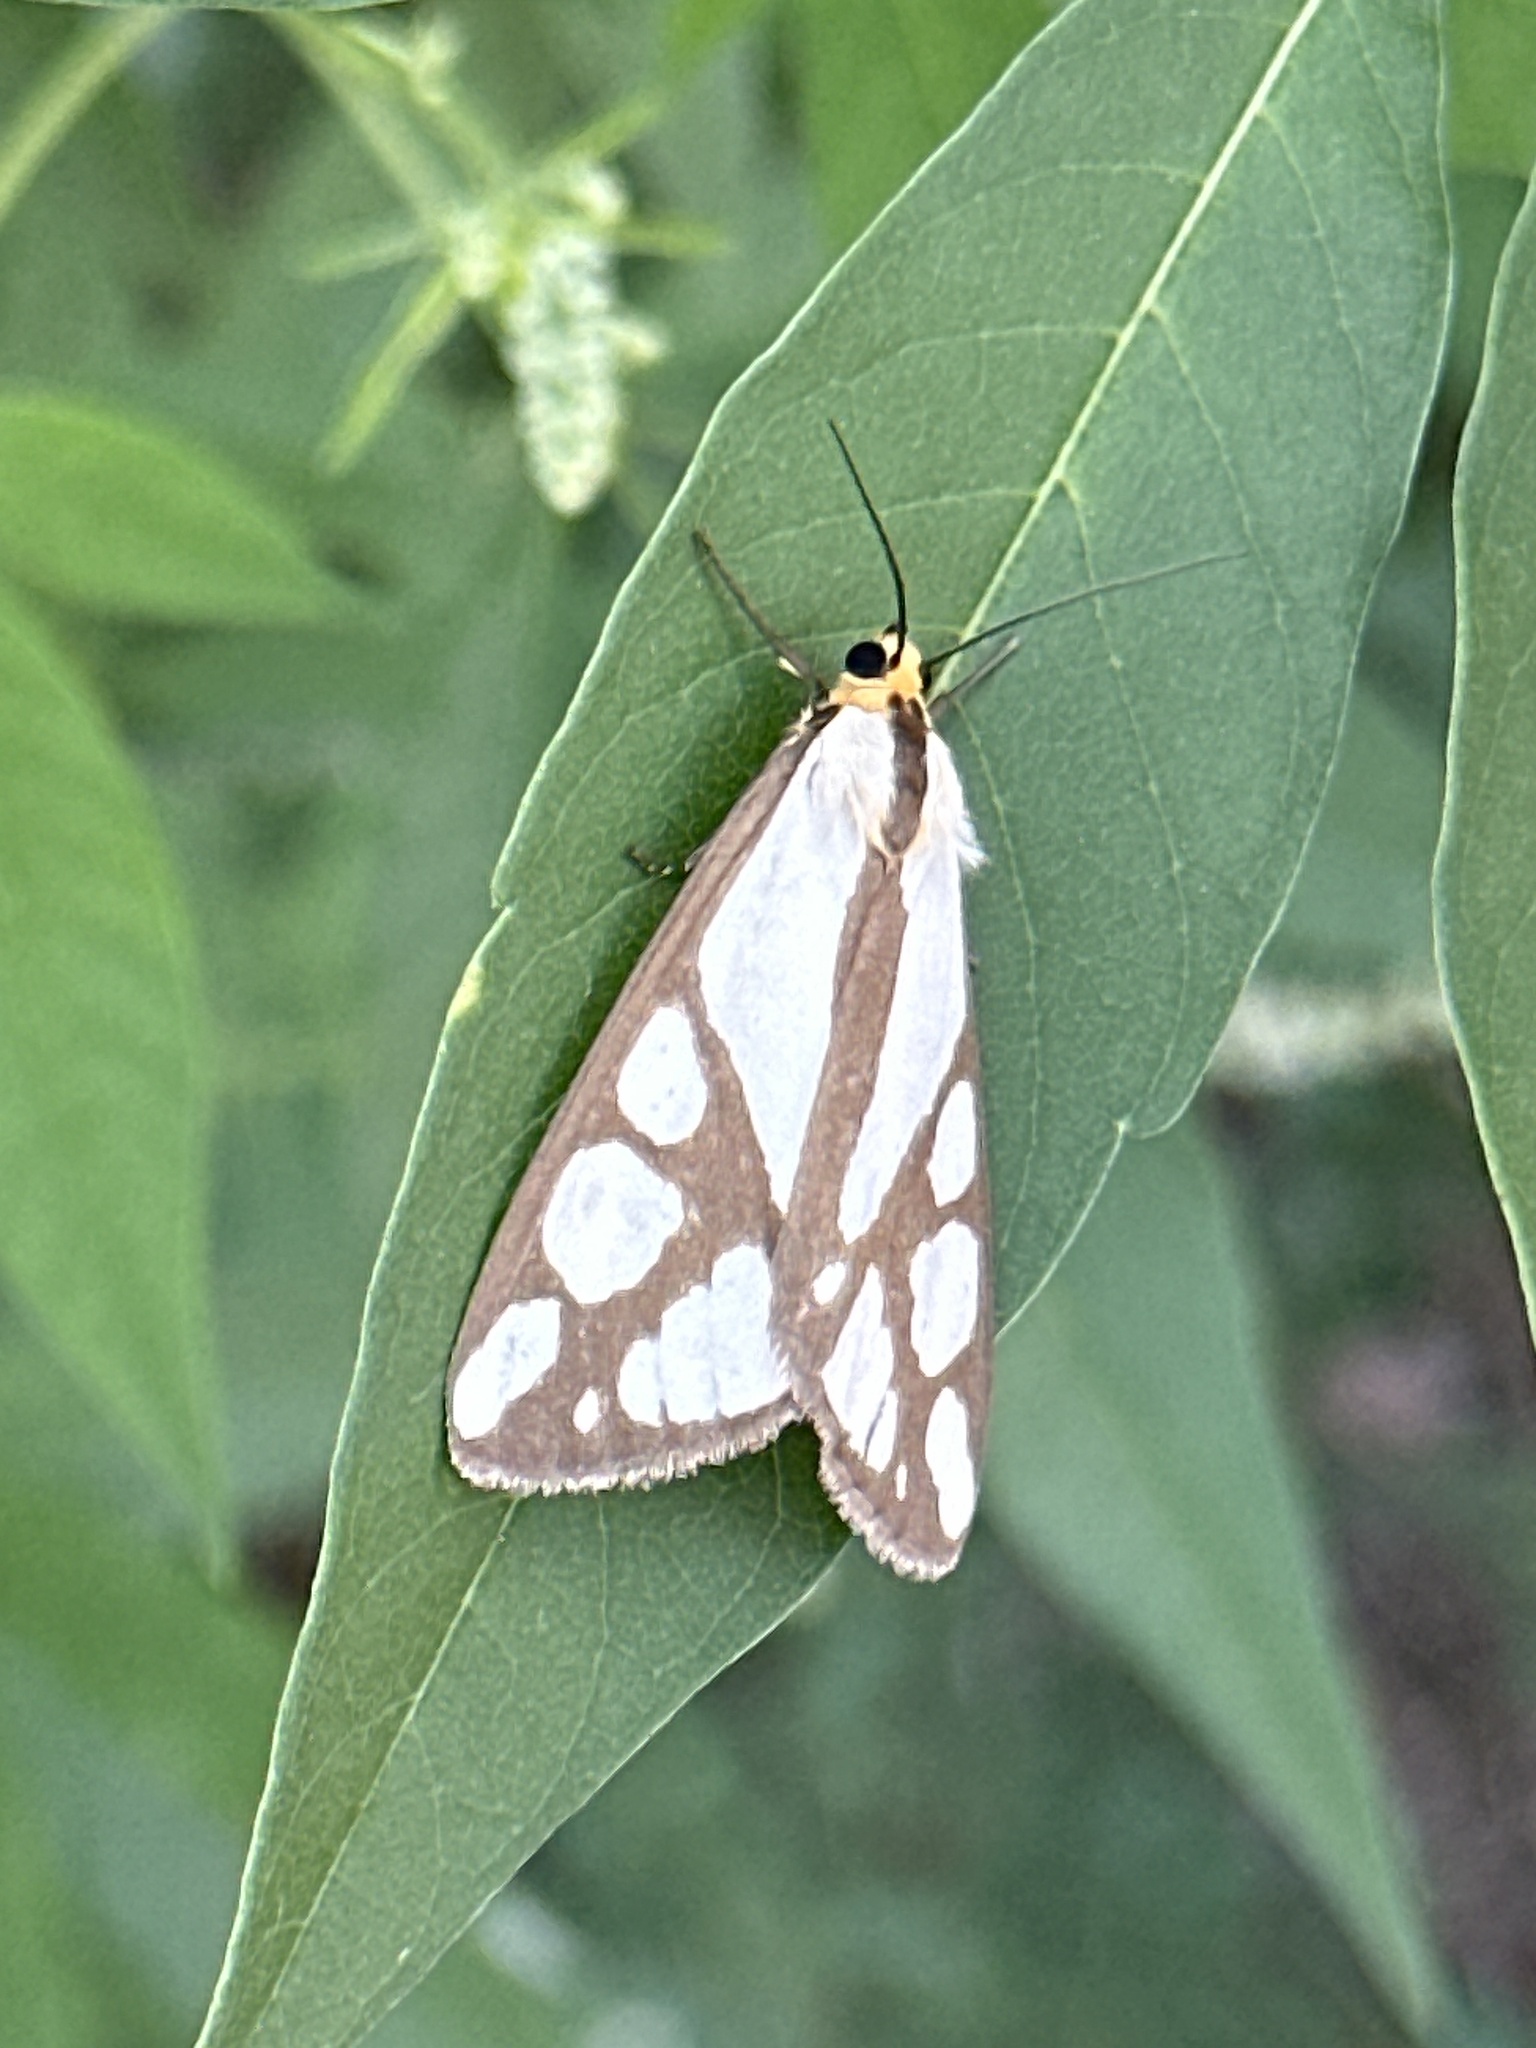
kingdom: Animalia
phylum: Arthropoda
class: Insecta
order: Lepidoptera
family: Erebidae
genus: Haploa
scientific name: Haploa reversa
